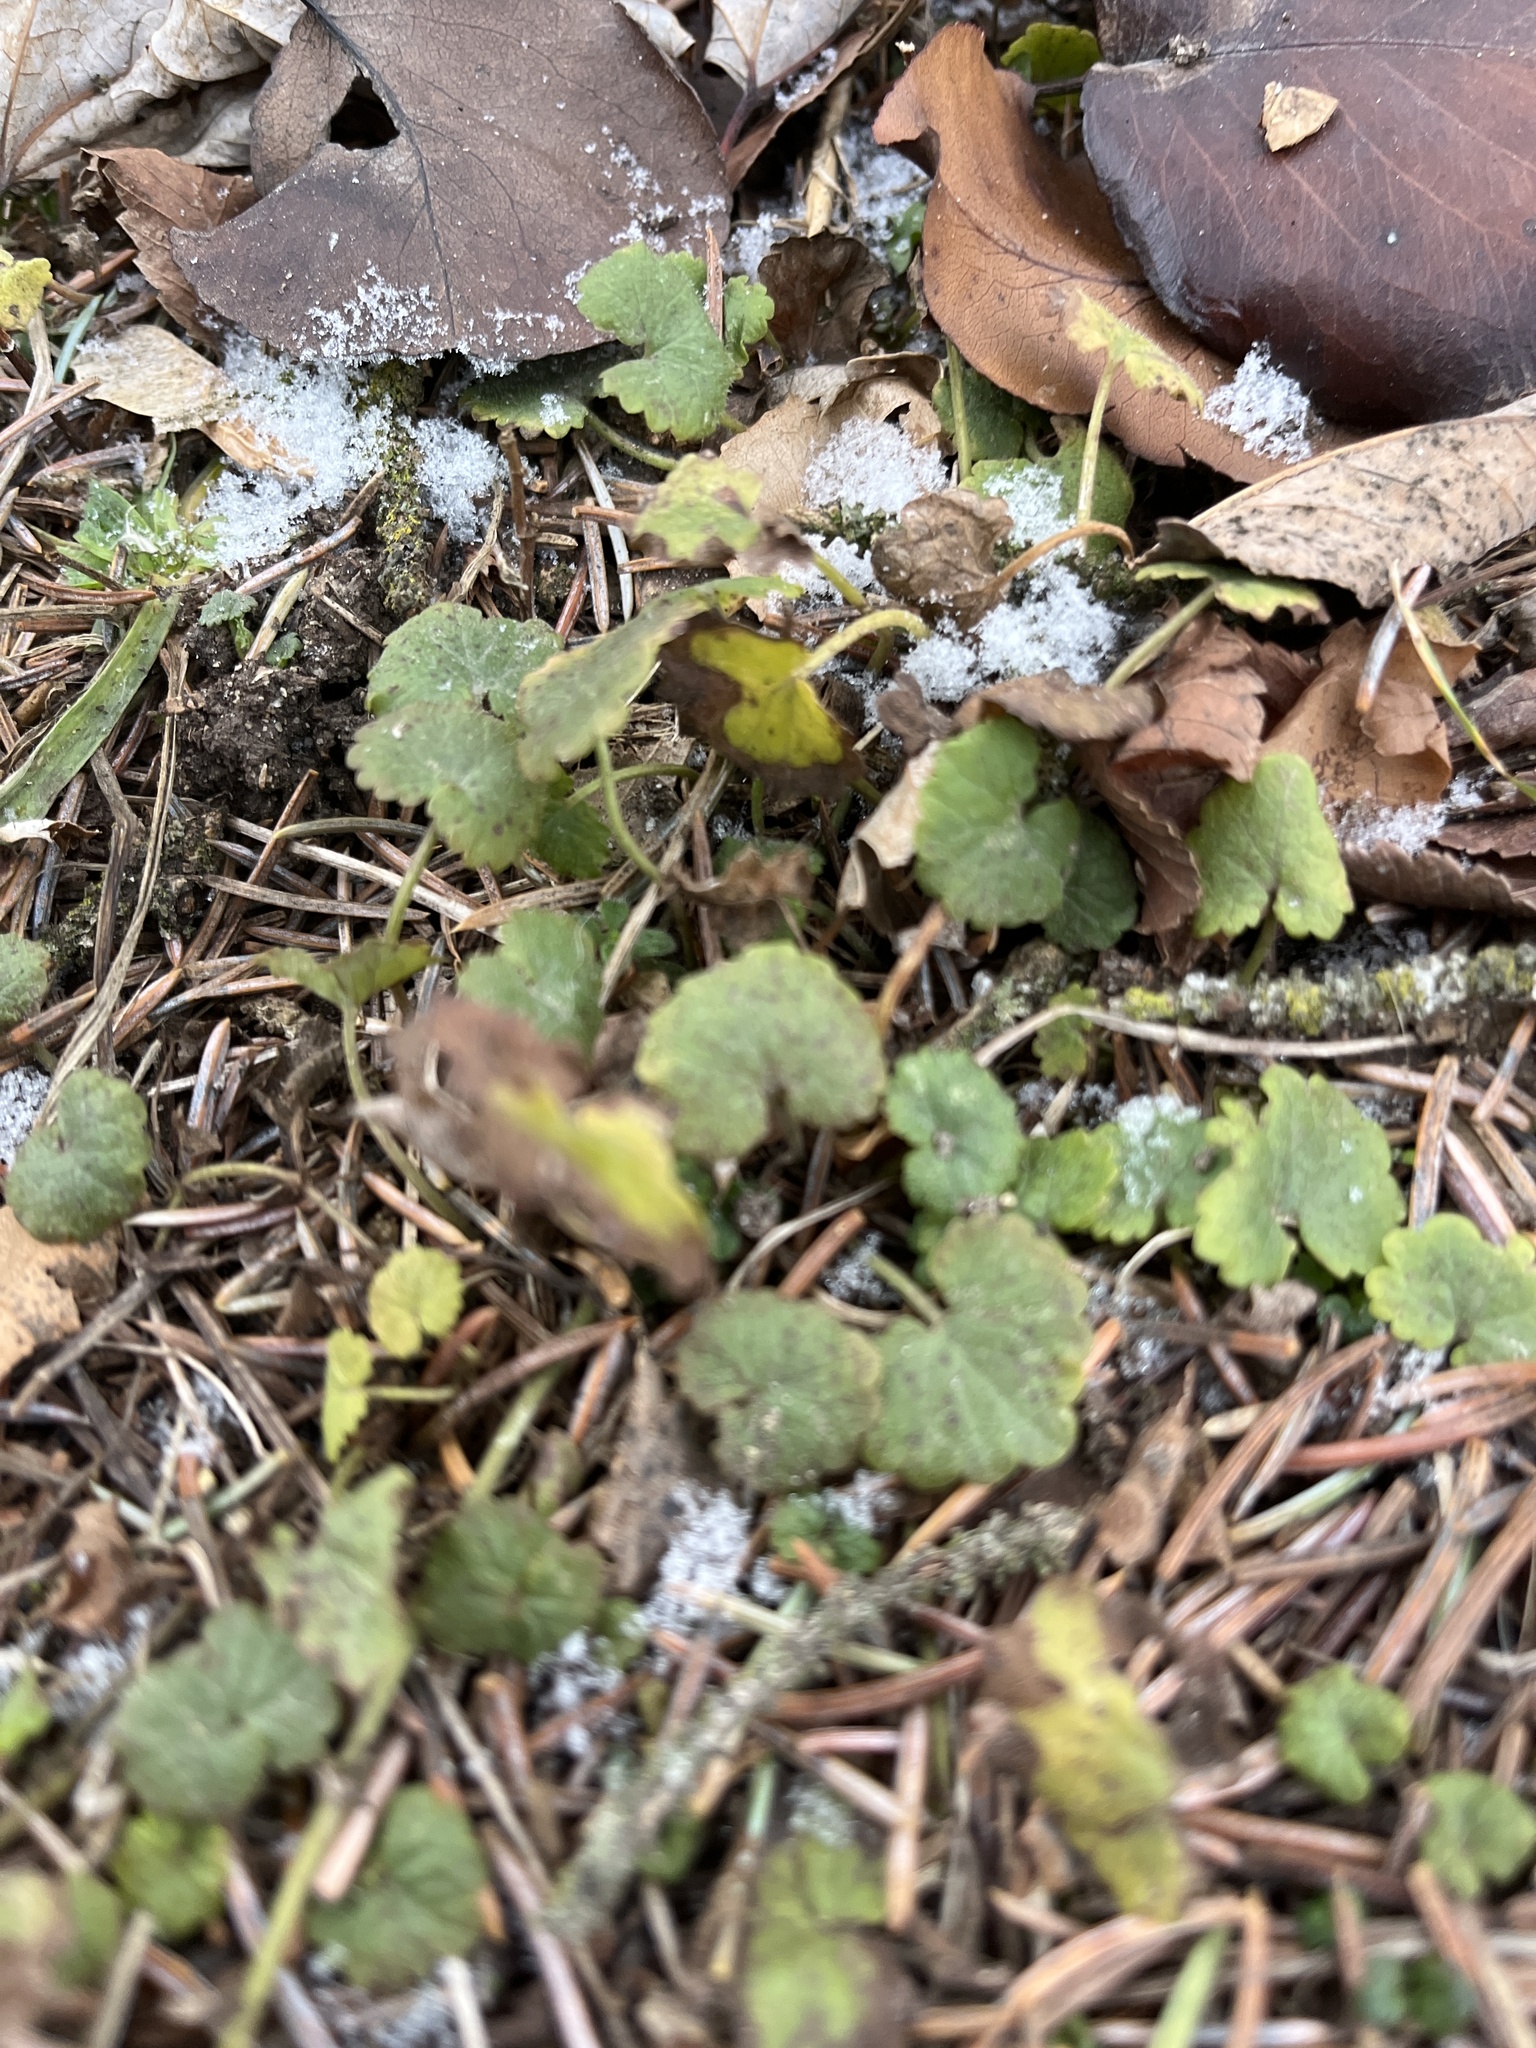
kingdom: Plantae
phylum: Tracheophyta
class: Magnoliopsida
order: Lamiales
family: Lamiaceae
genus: Glechoma
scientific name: Glechoma hederacea
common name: Ground ivy
